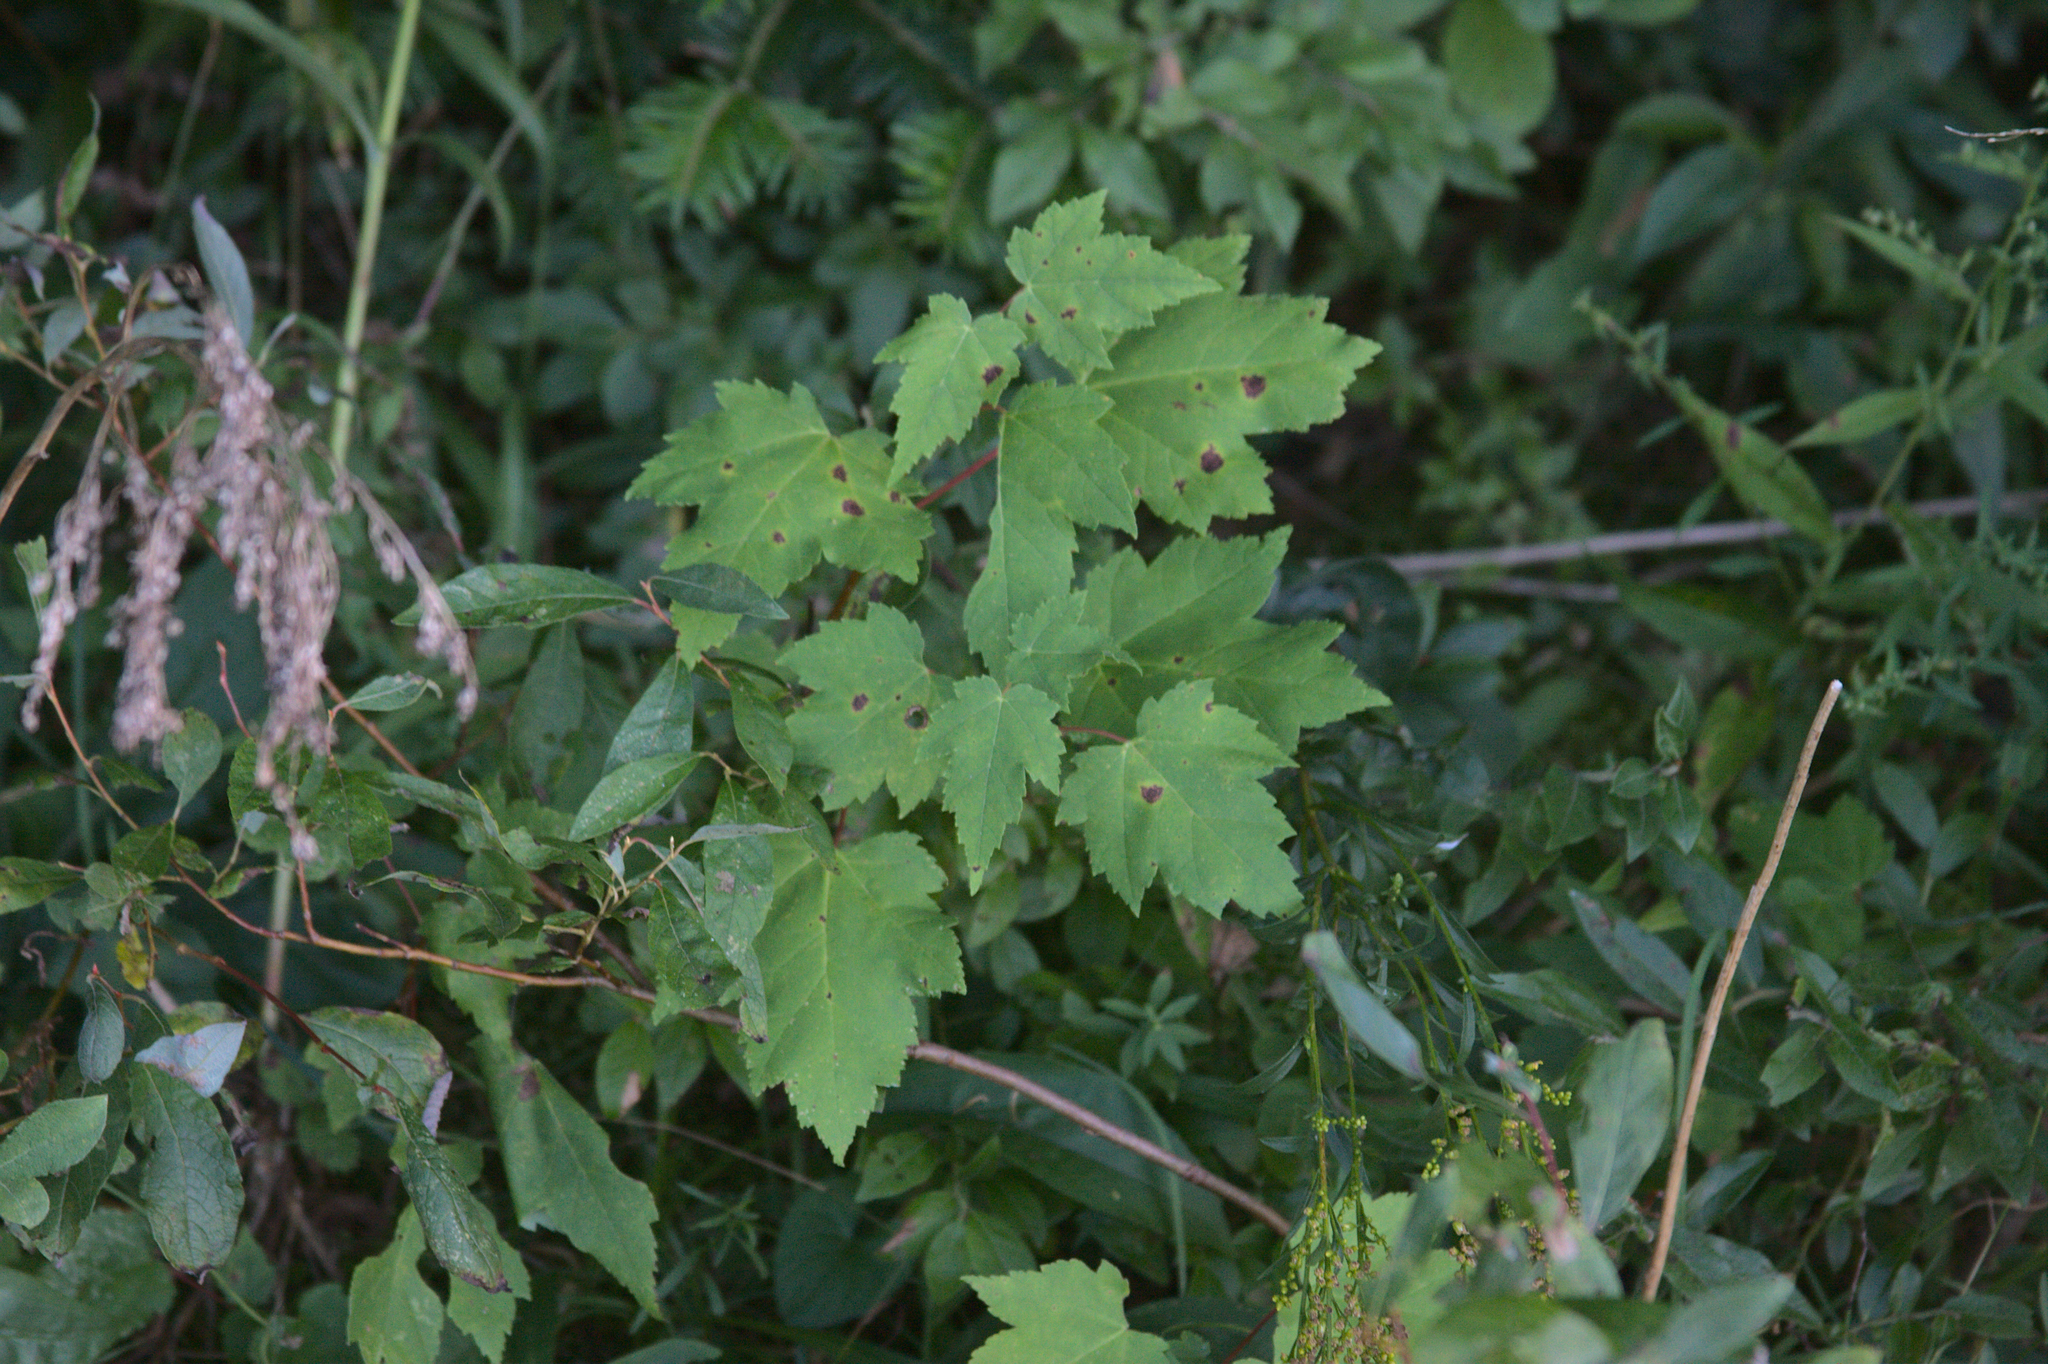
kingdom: Plantae
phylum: Tracheophyta
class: Magnoliopsida
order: Sapindales
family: Sapindaceae
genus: Acer
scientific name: Acer rubrum
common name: Red maple
